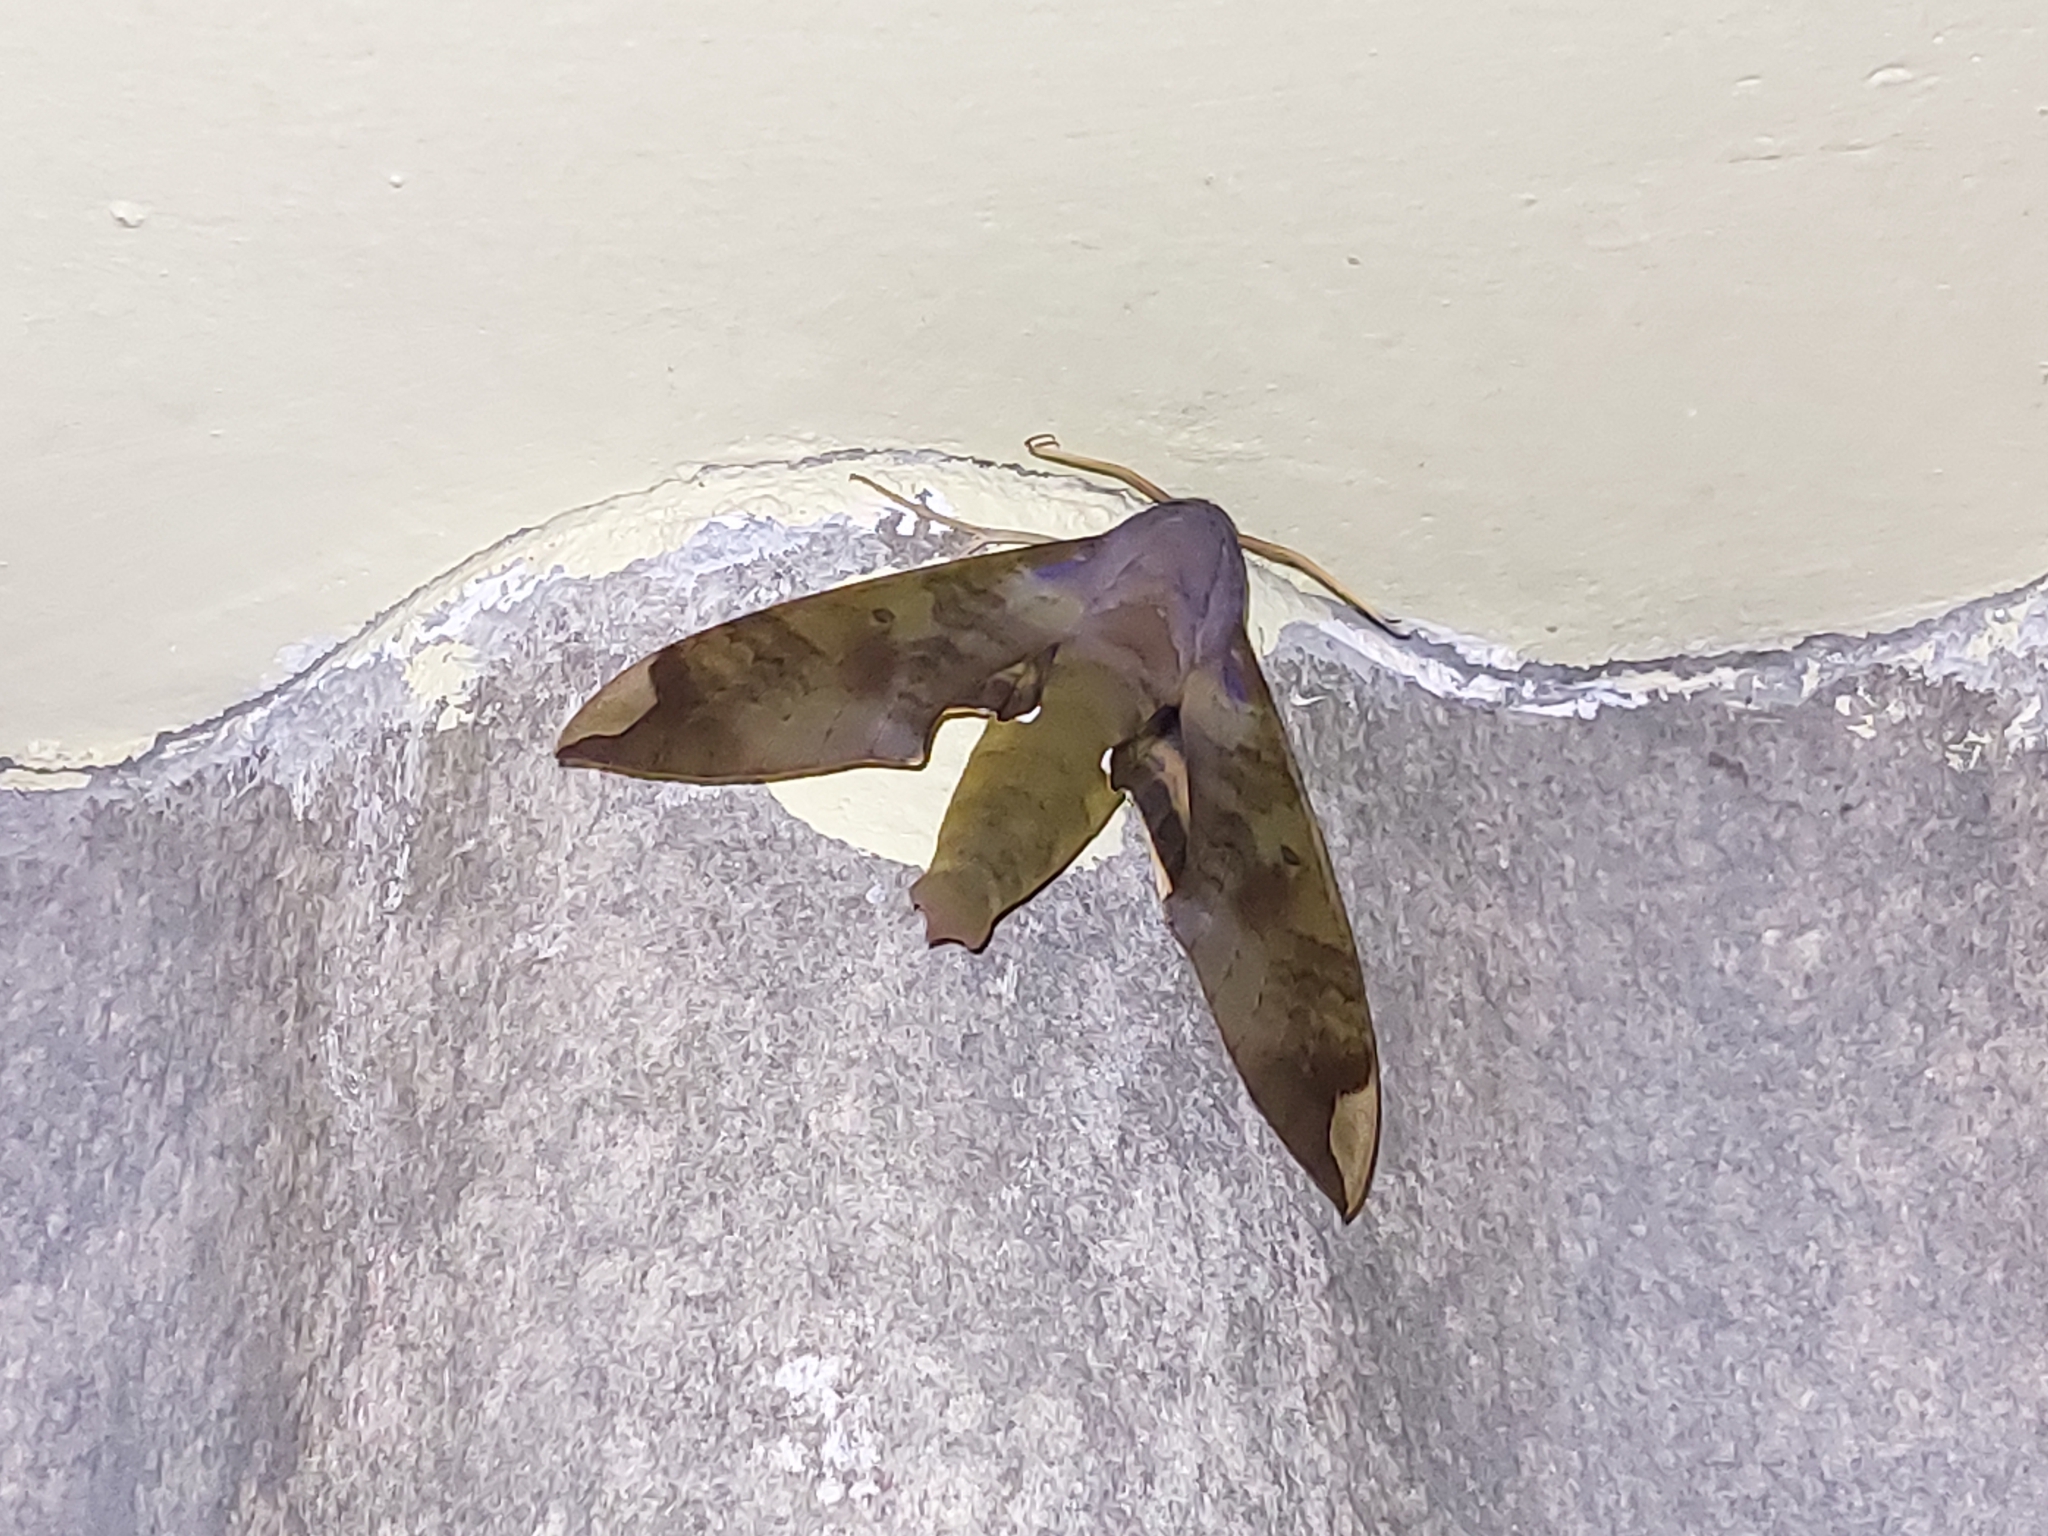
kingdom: Animalia
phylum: Arthropoda
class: Insecta
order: Lepidoptera
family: Sphingidae
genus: Pachylia
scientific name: Pachylia ficus
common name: Fig sphinx
